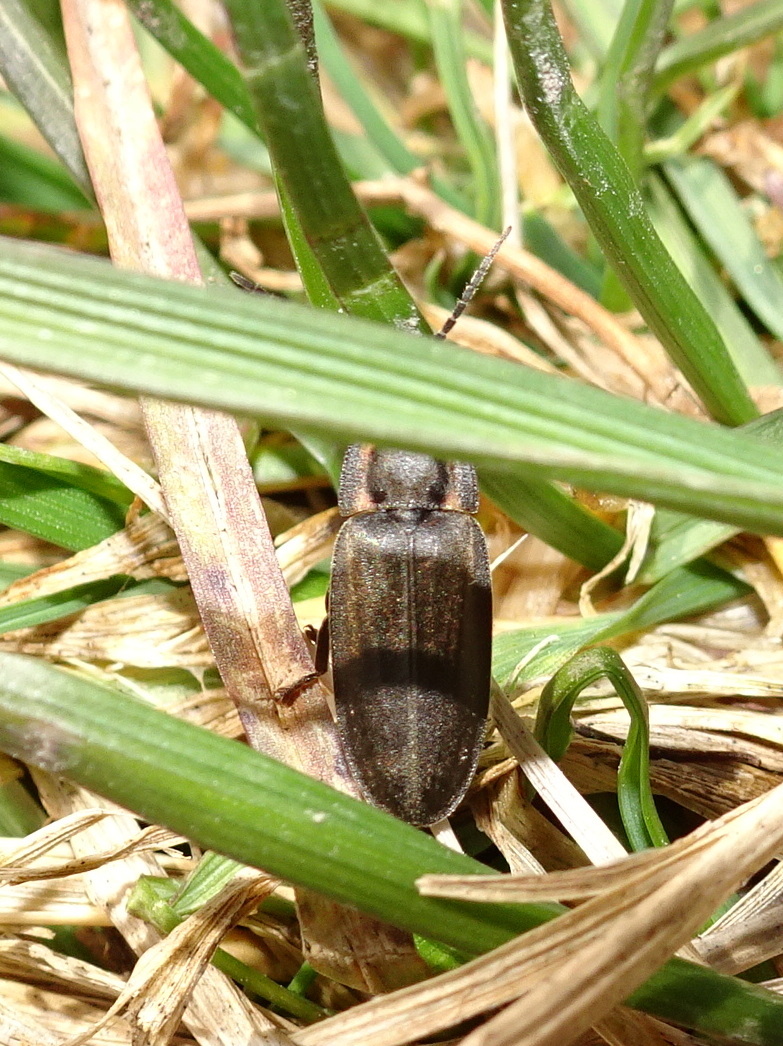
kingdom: Animalia
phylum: Arthropoda
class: Insecta
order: Coleoptera
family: Lampyridae
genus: Photinus
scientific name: Photinus corrusca
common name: Winter firefly
